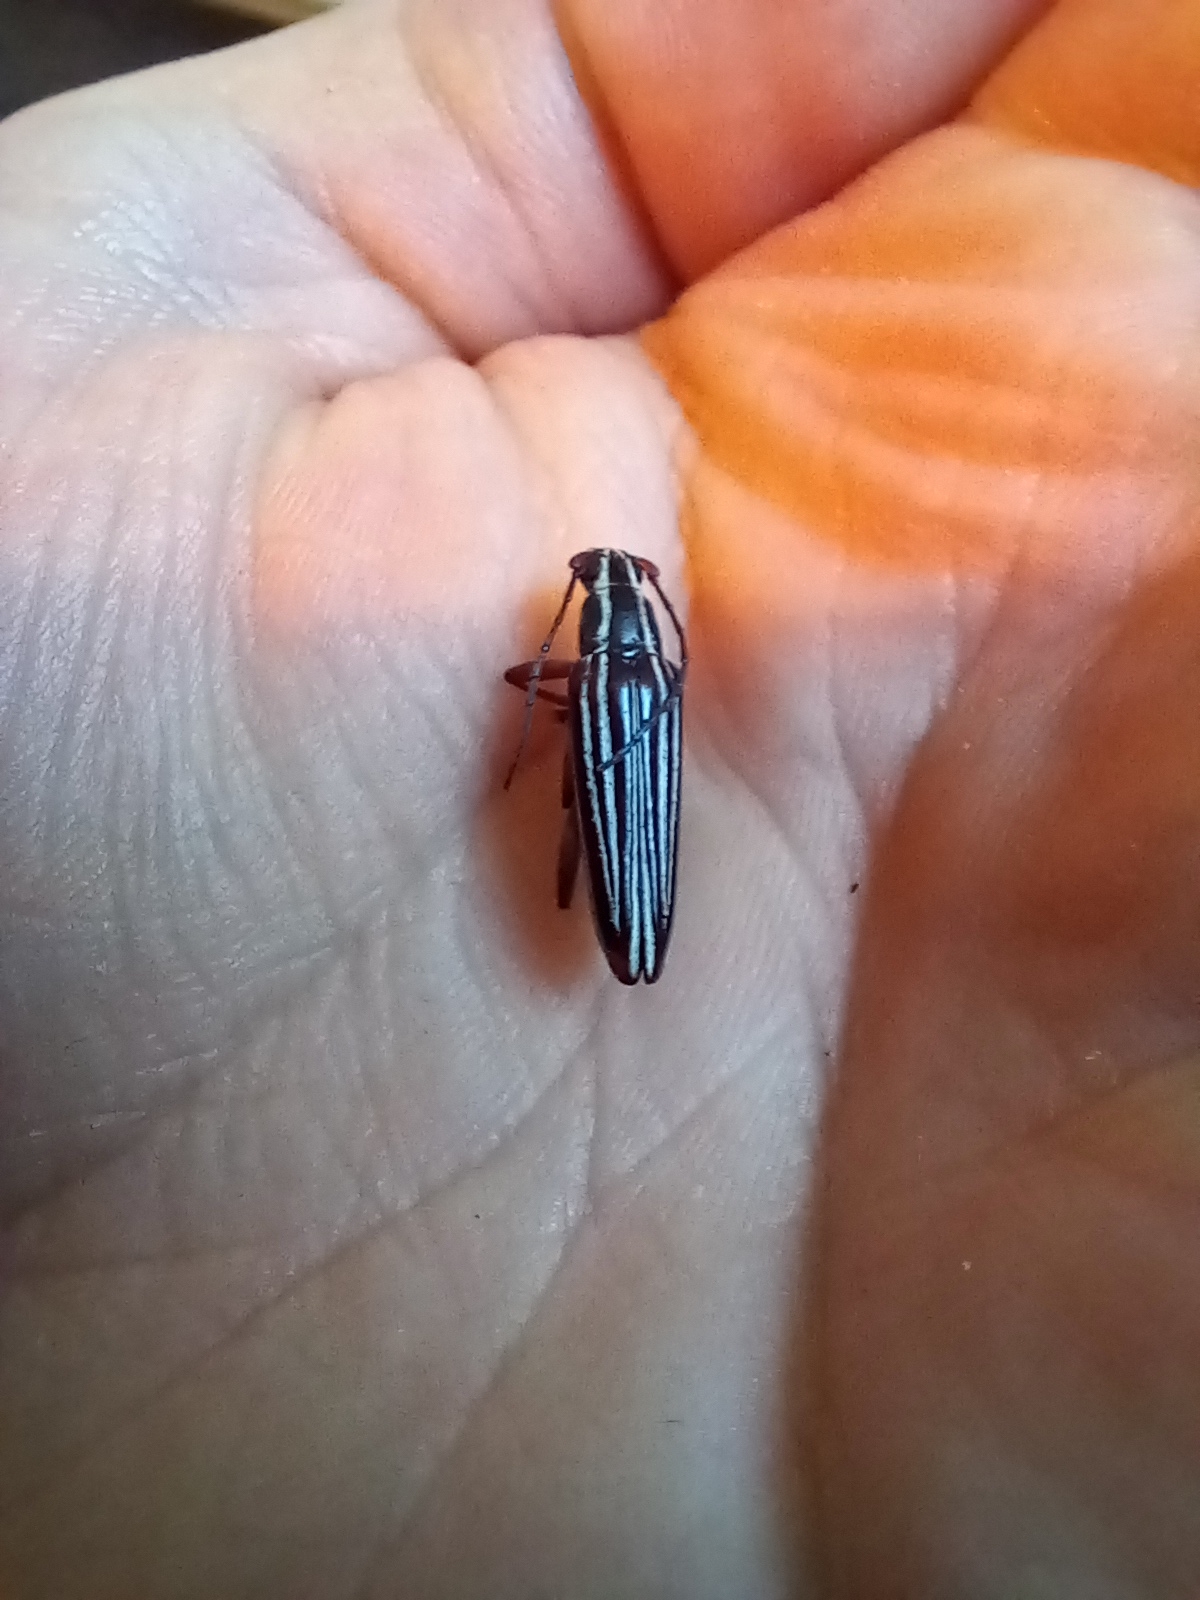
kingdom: Animalia
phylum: Arthropoda
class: Insecta
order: Coleoptera
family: Cerambycidae
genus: Coptomma
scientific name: Coptomma lineatum
